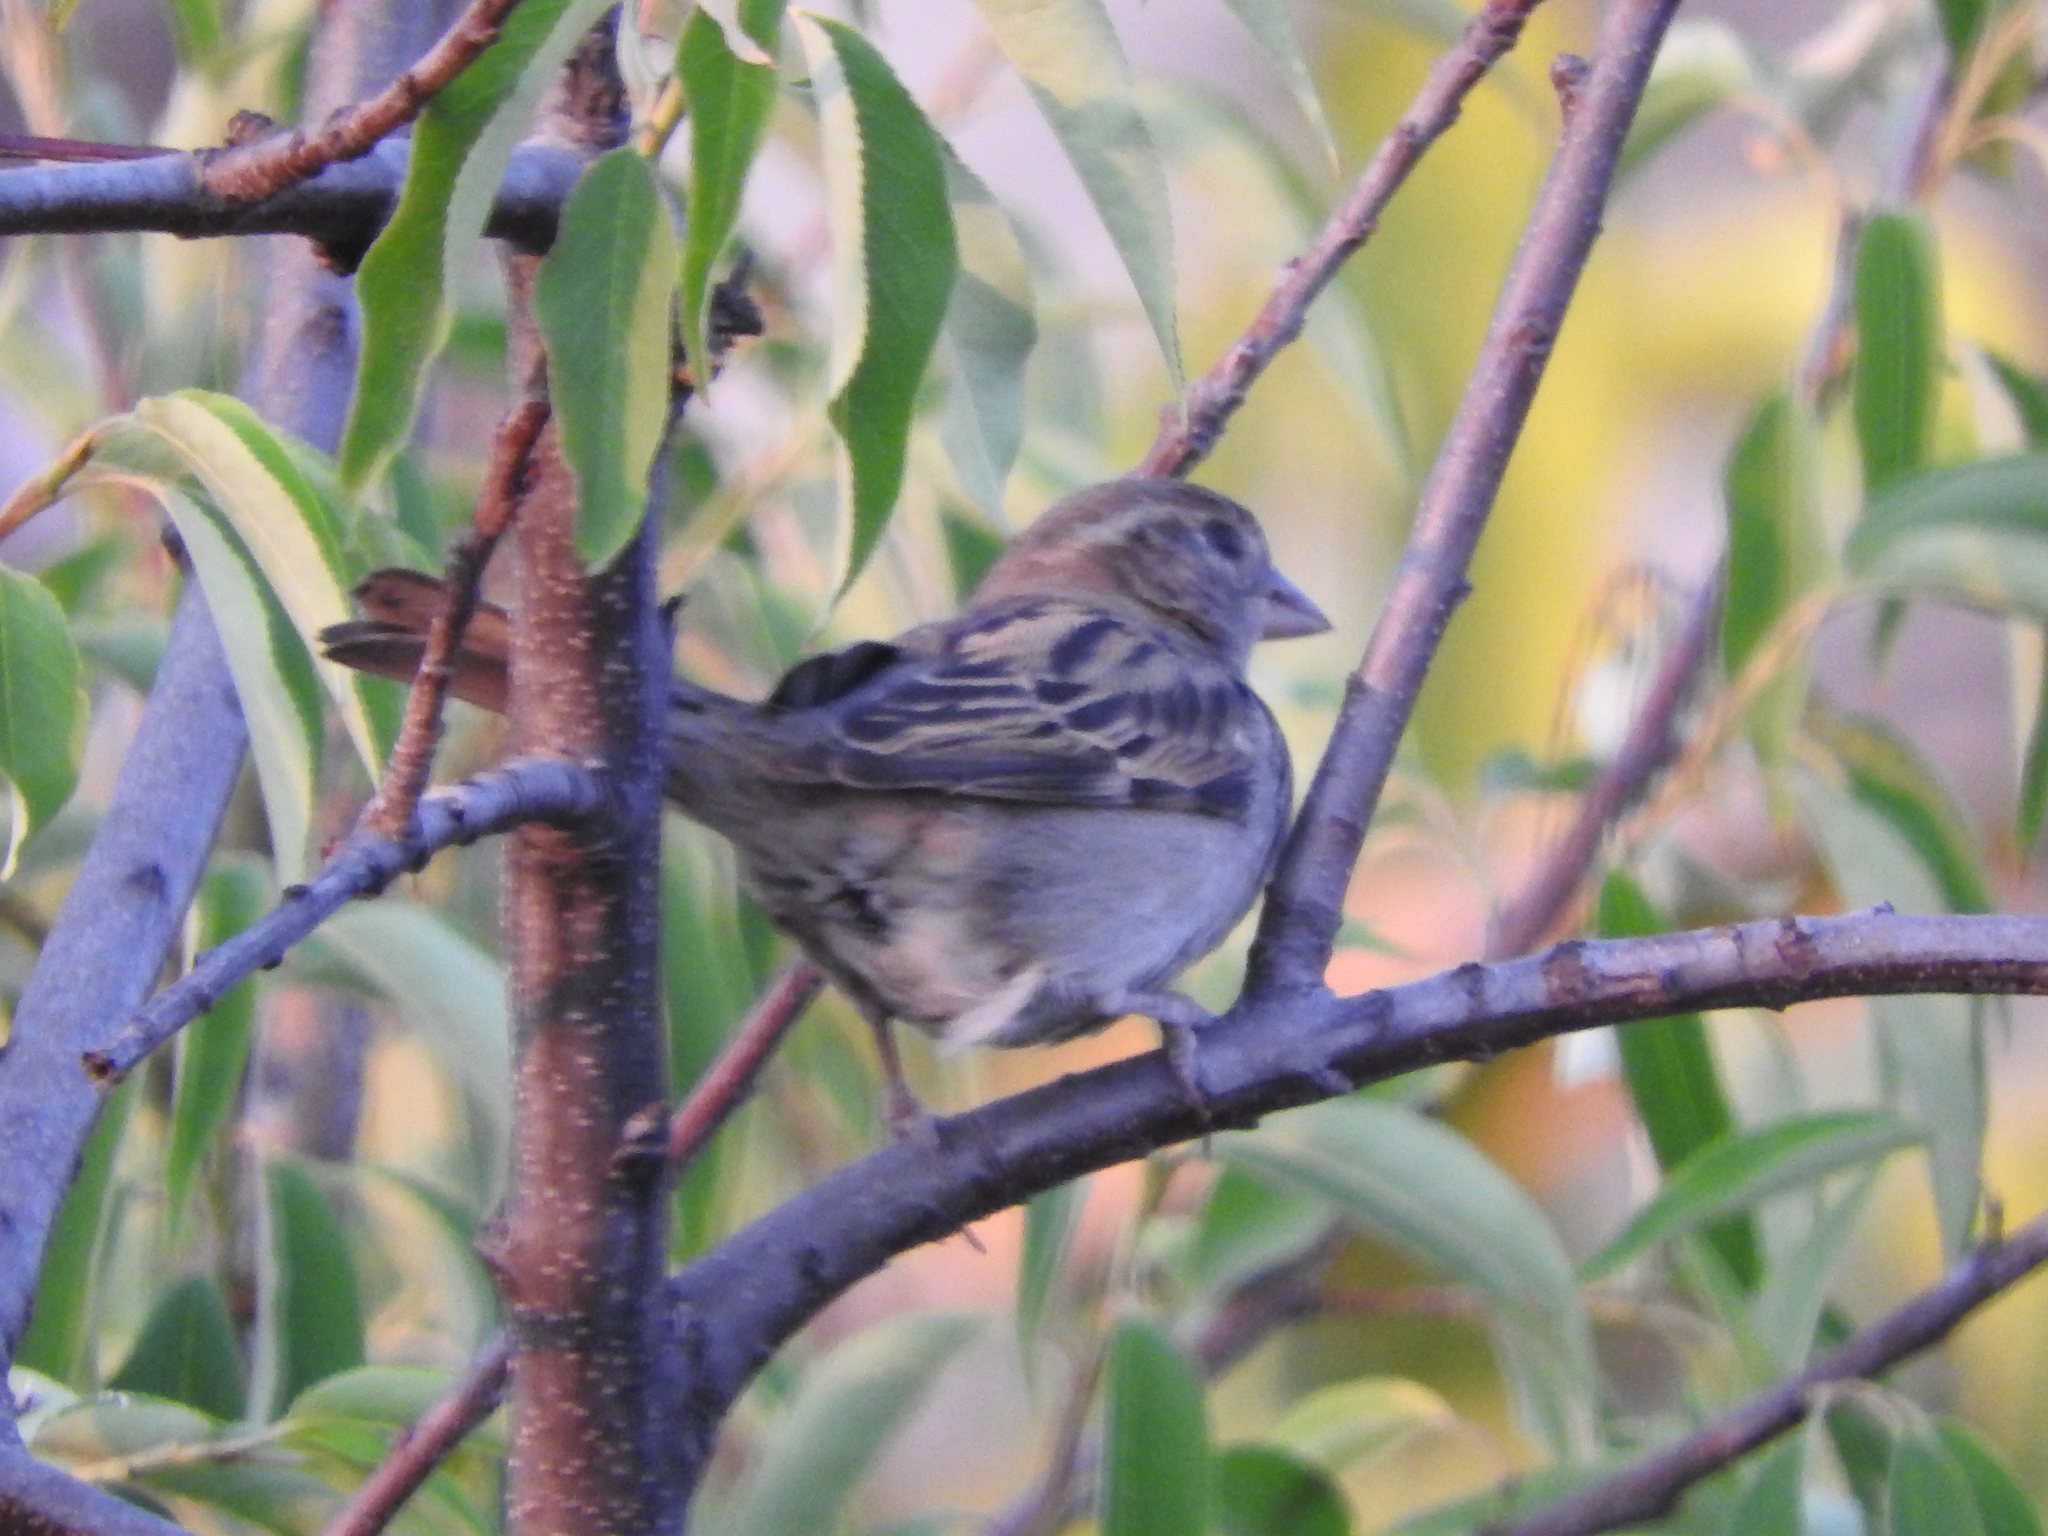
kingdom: Animalia
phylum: Chordata
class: Aves
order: Passeriformes
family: Passeridae
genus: Passer
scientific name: Passer domesticus
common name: House sparrow
